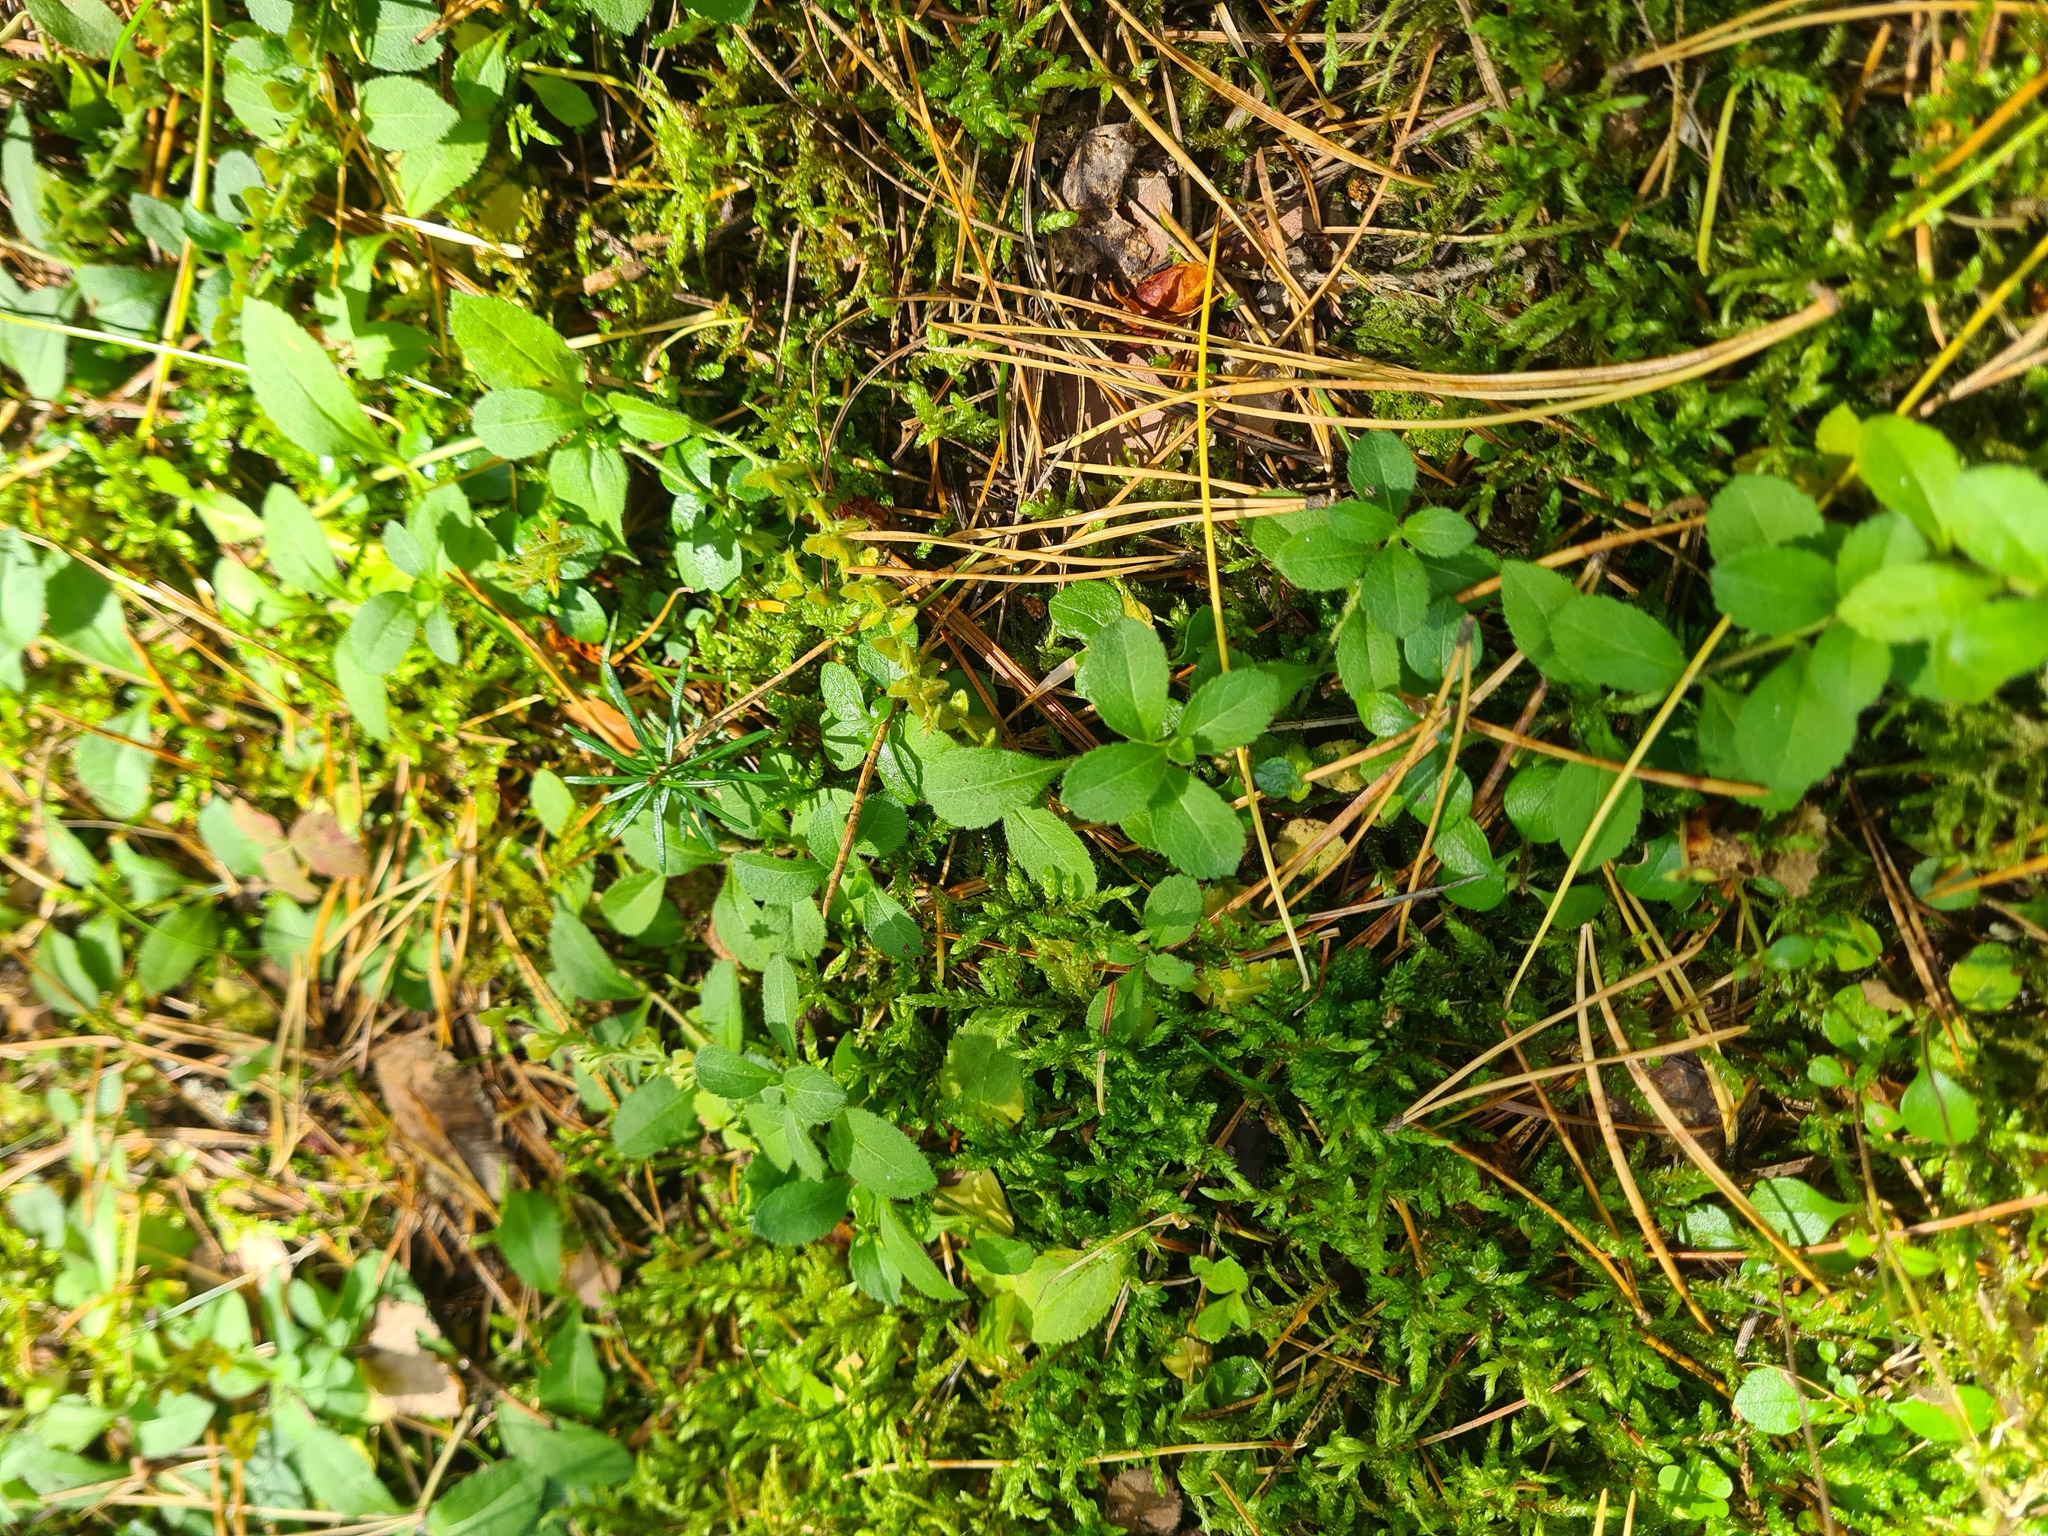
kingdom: Plantae
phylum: Tracheophyta
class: Magnoliopsida
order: Lamiales
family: Plantaginaceae
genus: Veronica
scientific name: Veronica officinalis
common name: Common speedwell
